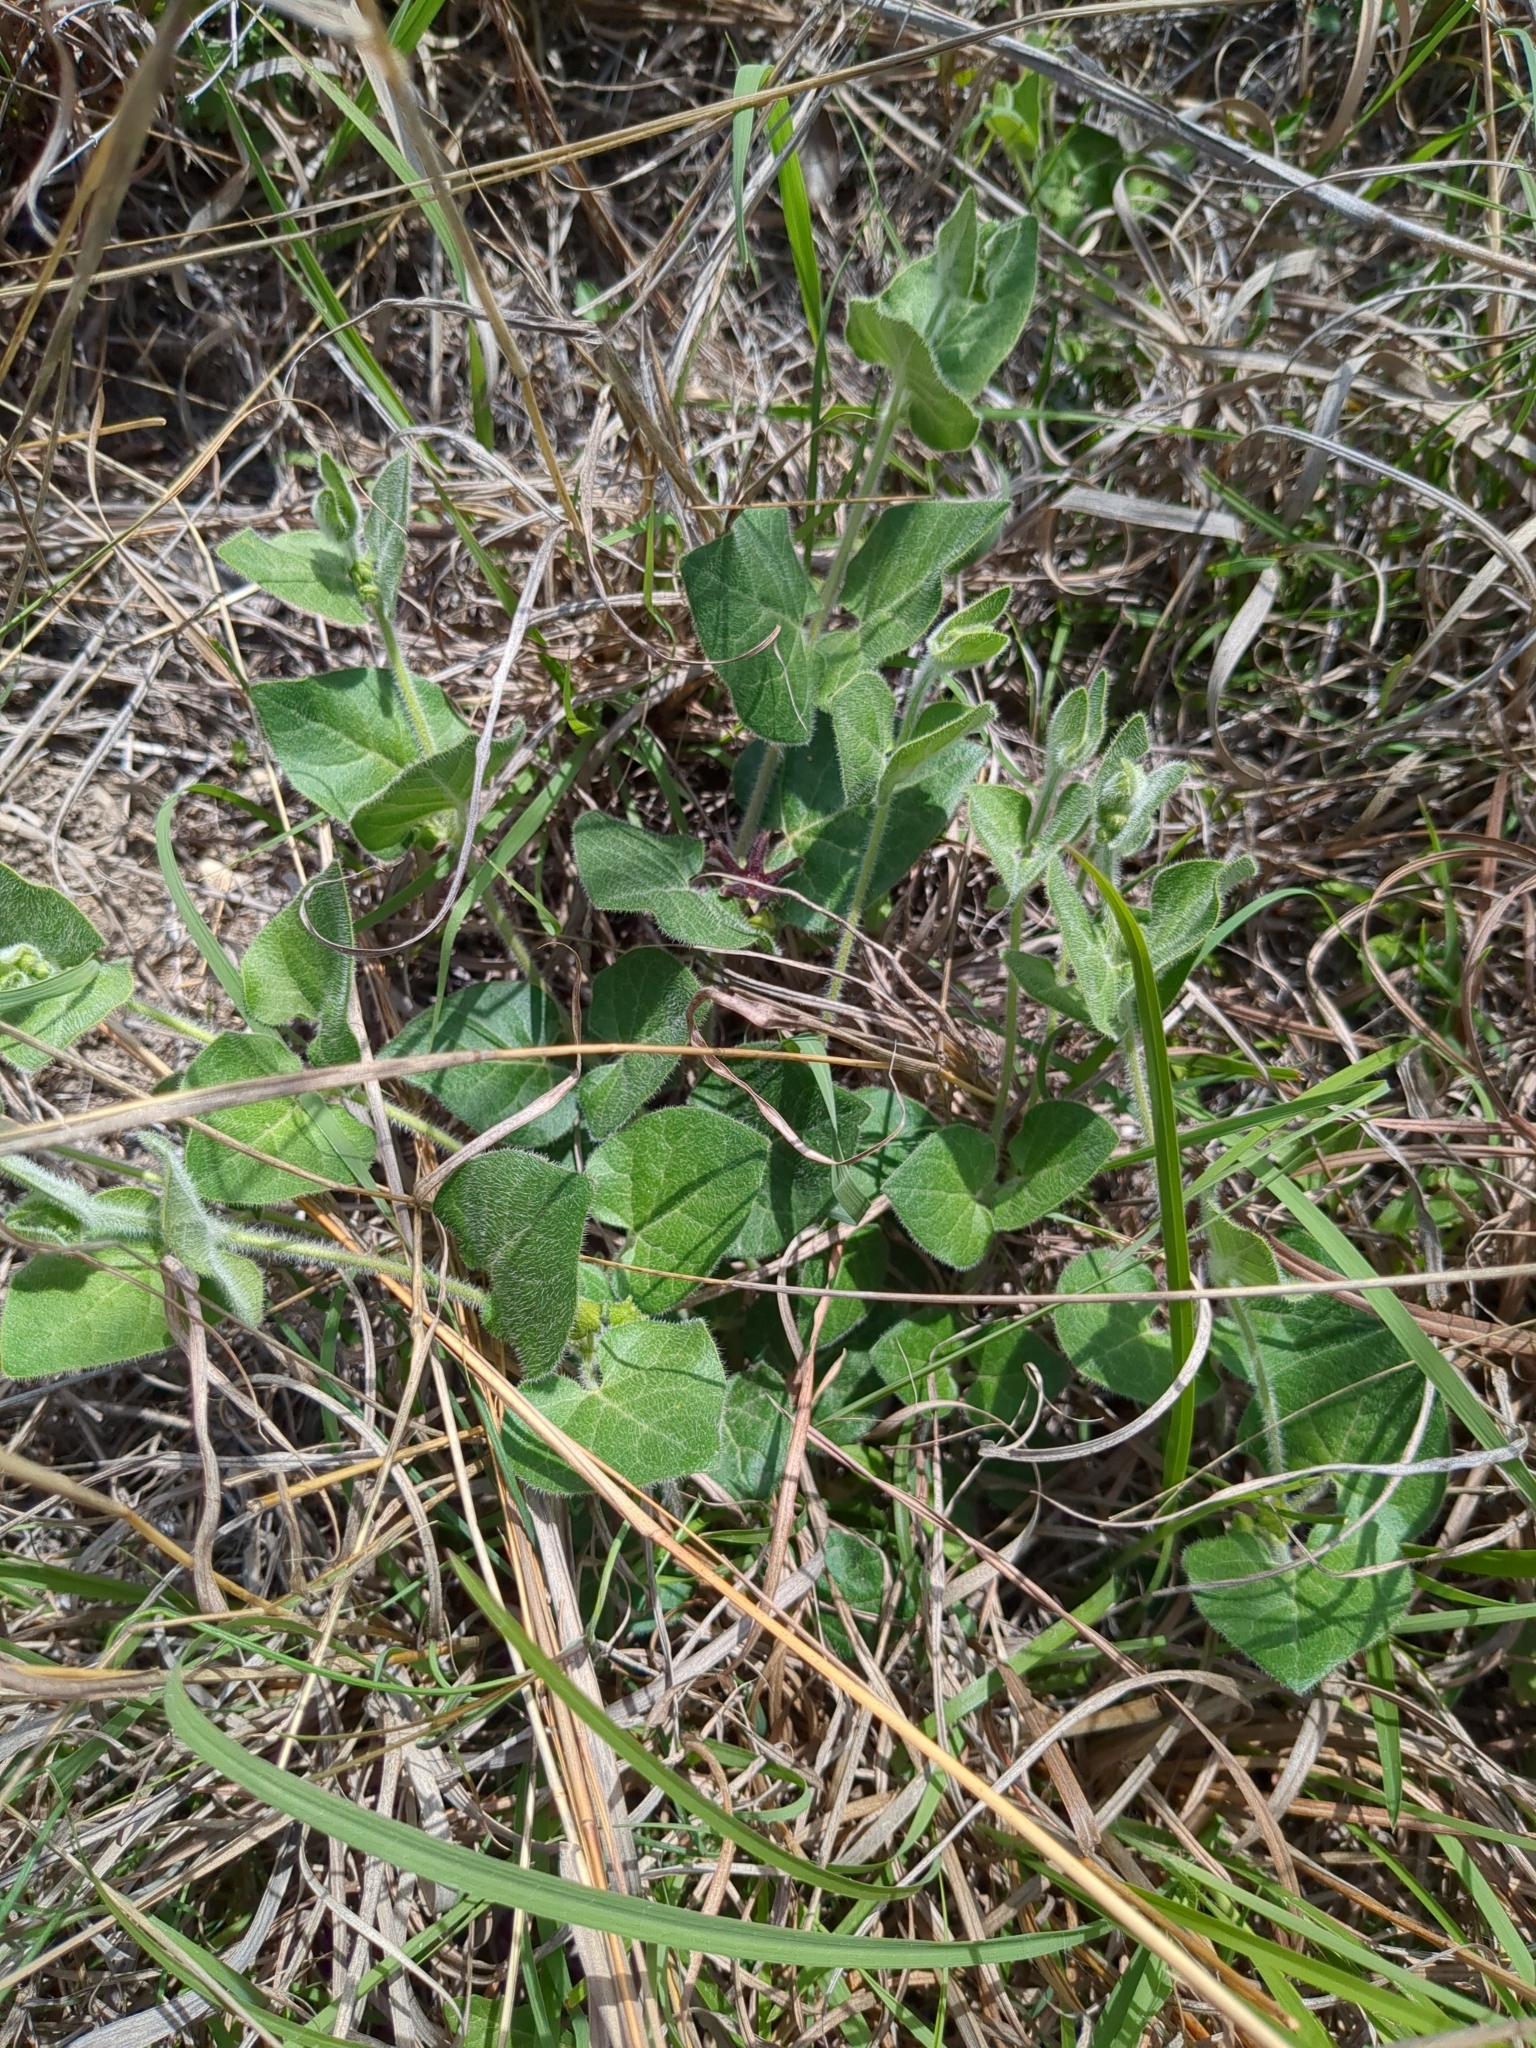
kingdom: Plantae
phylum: Tracheophyta
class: Magnoliopsida
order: Gentianales
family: Apocynaceae
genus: Chthamalia
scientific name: Chthamalia biflora
